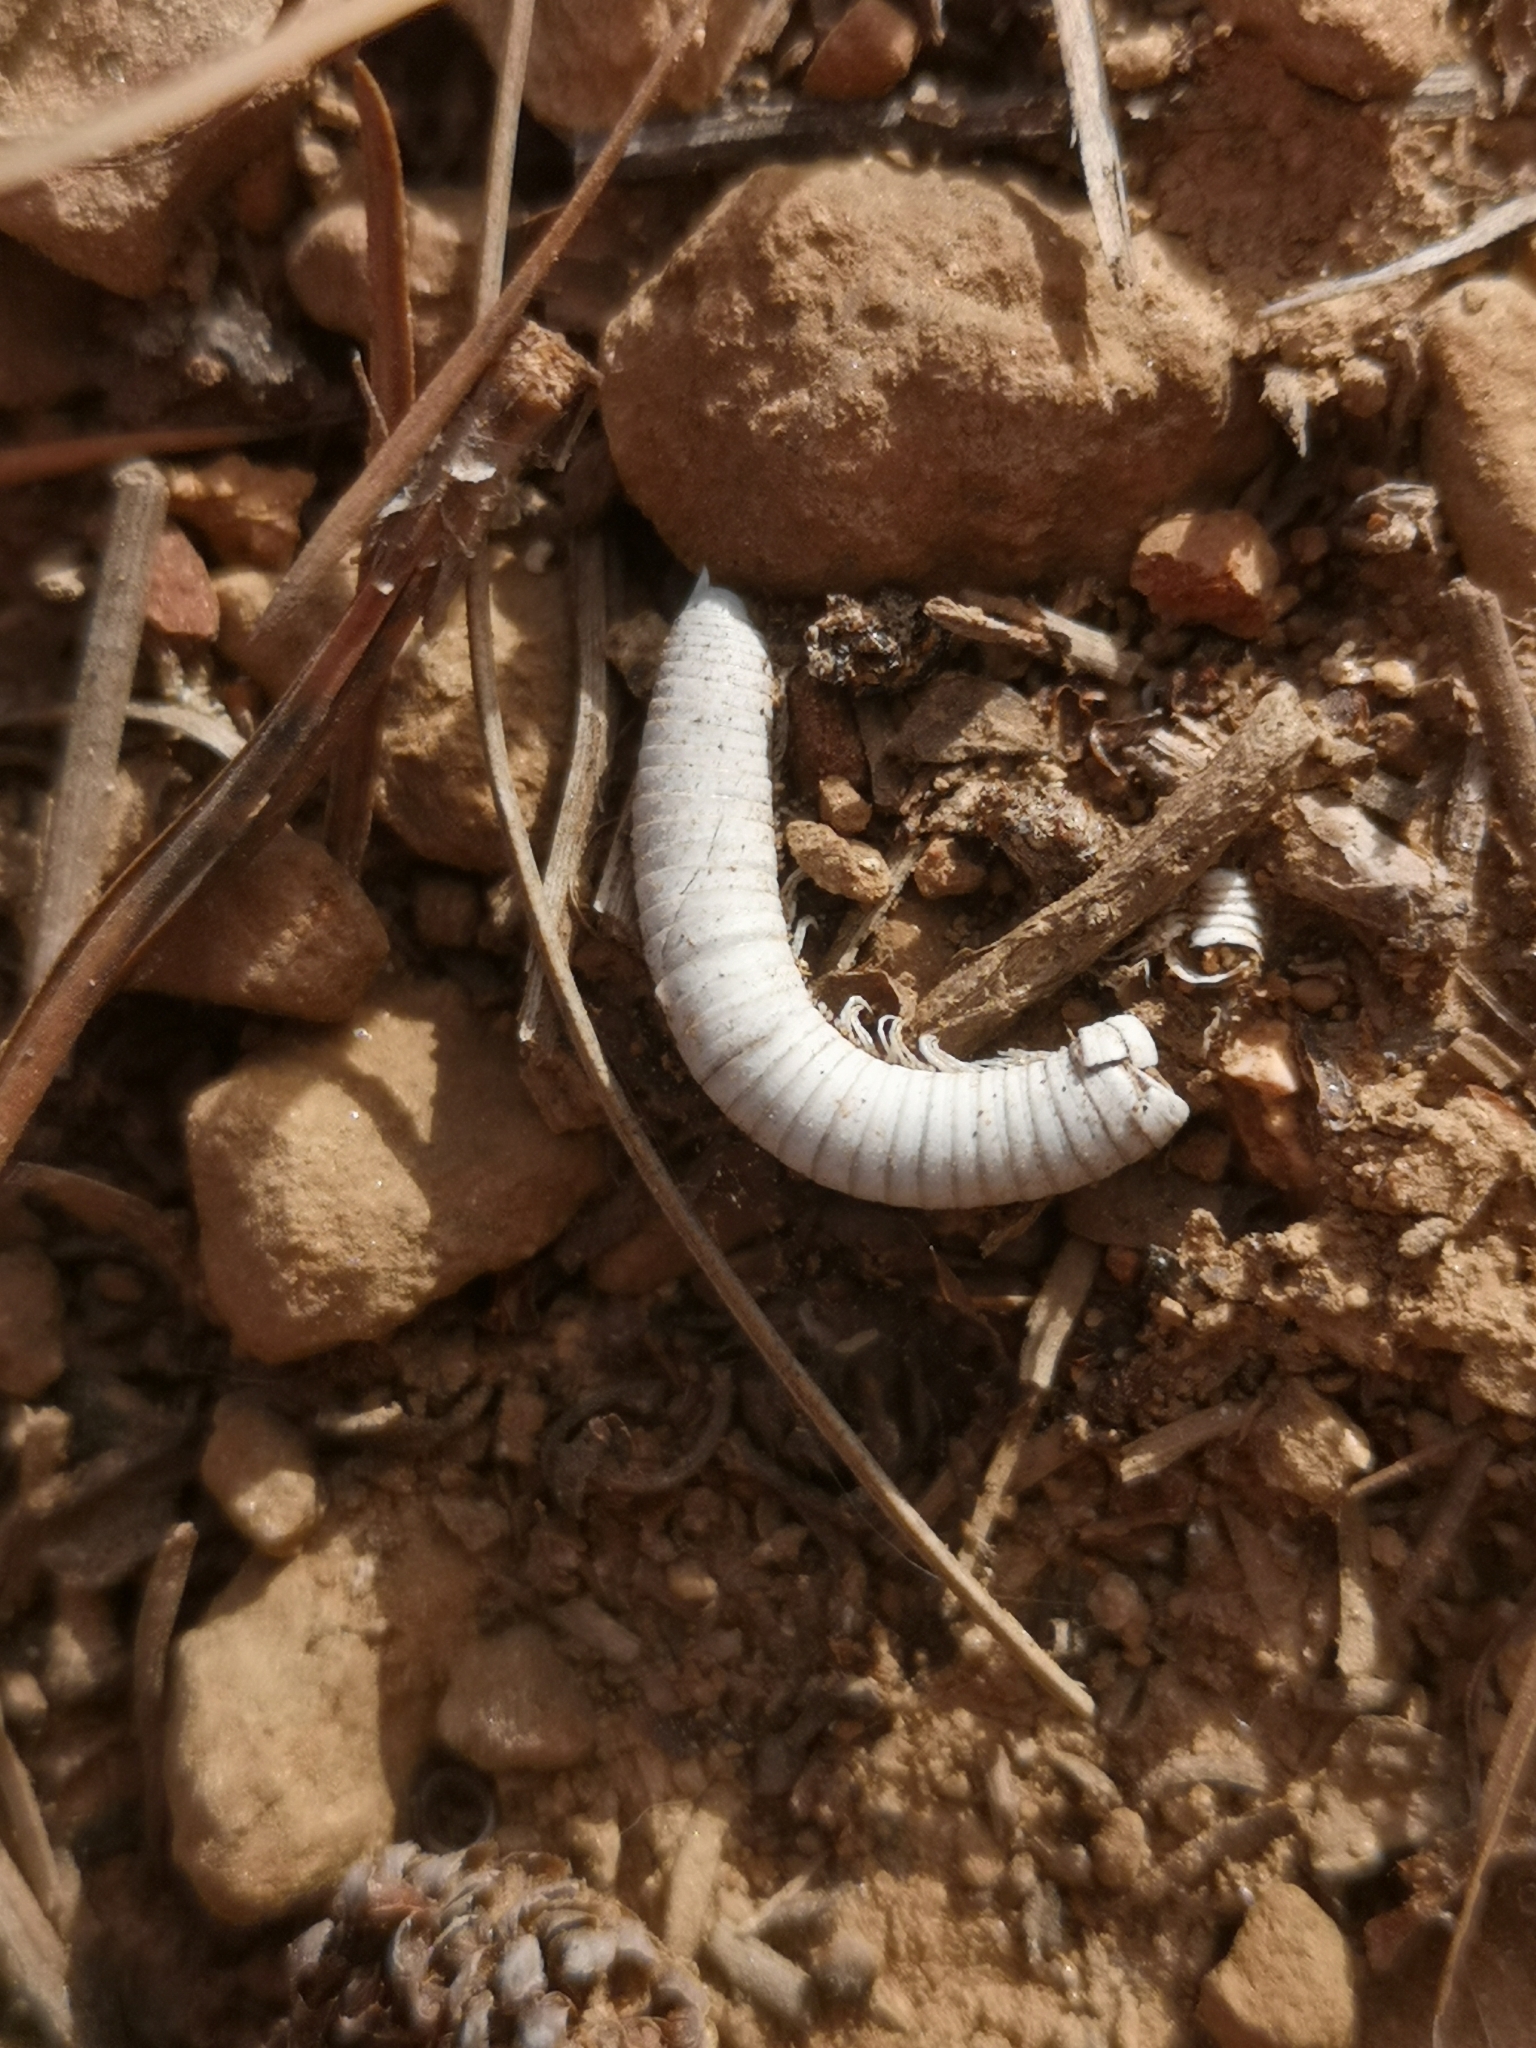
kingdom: Animalia
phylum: Arthropoda
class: Diplopoda
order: Julida
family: Julidae
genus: Ommatoiulus
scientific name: Ommatoiulus moreleti
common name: Portuguese millipede
